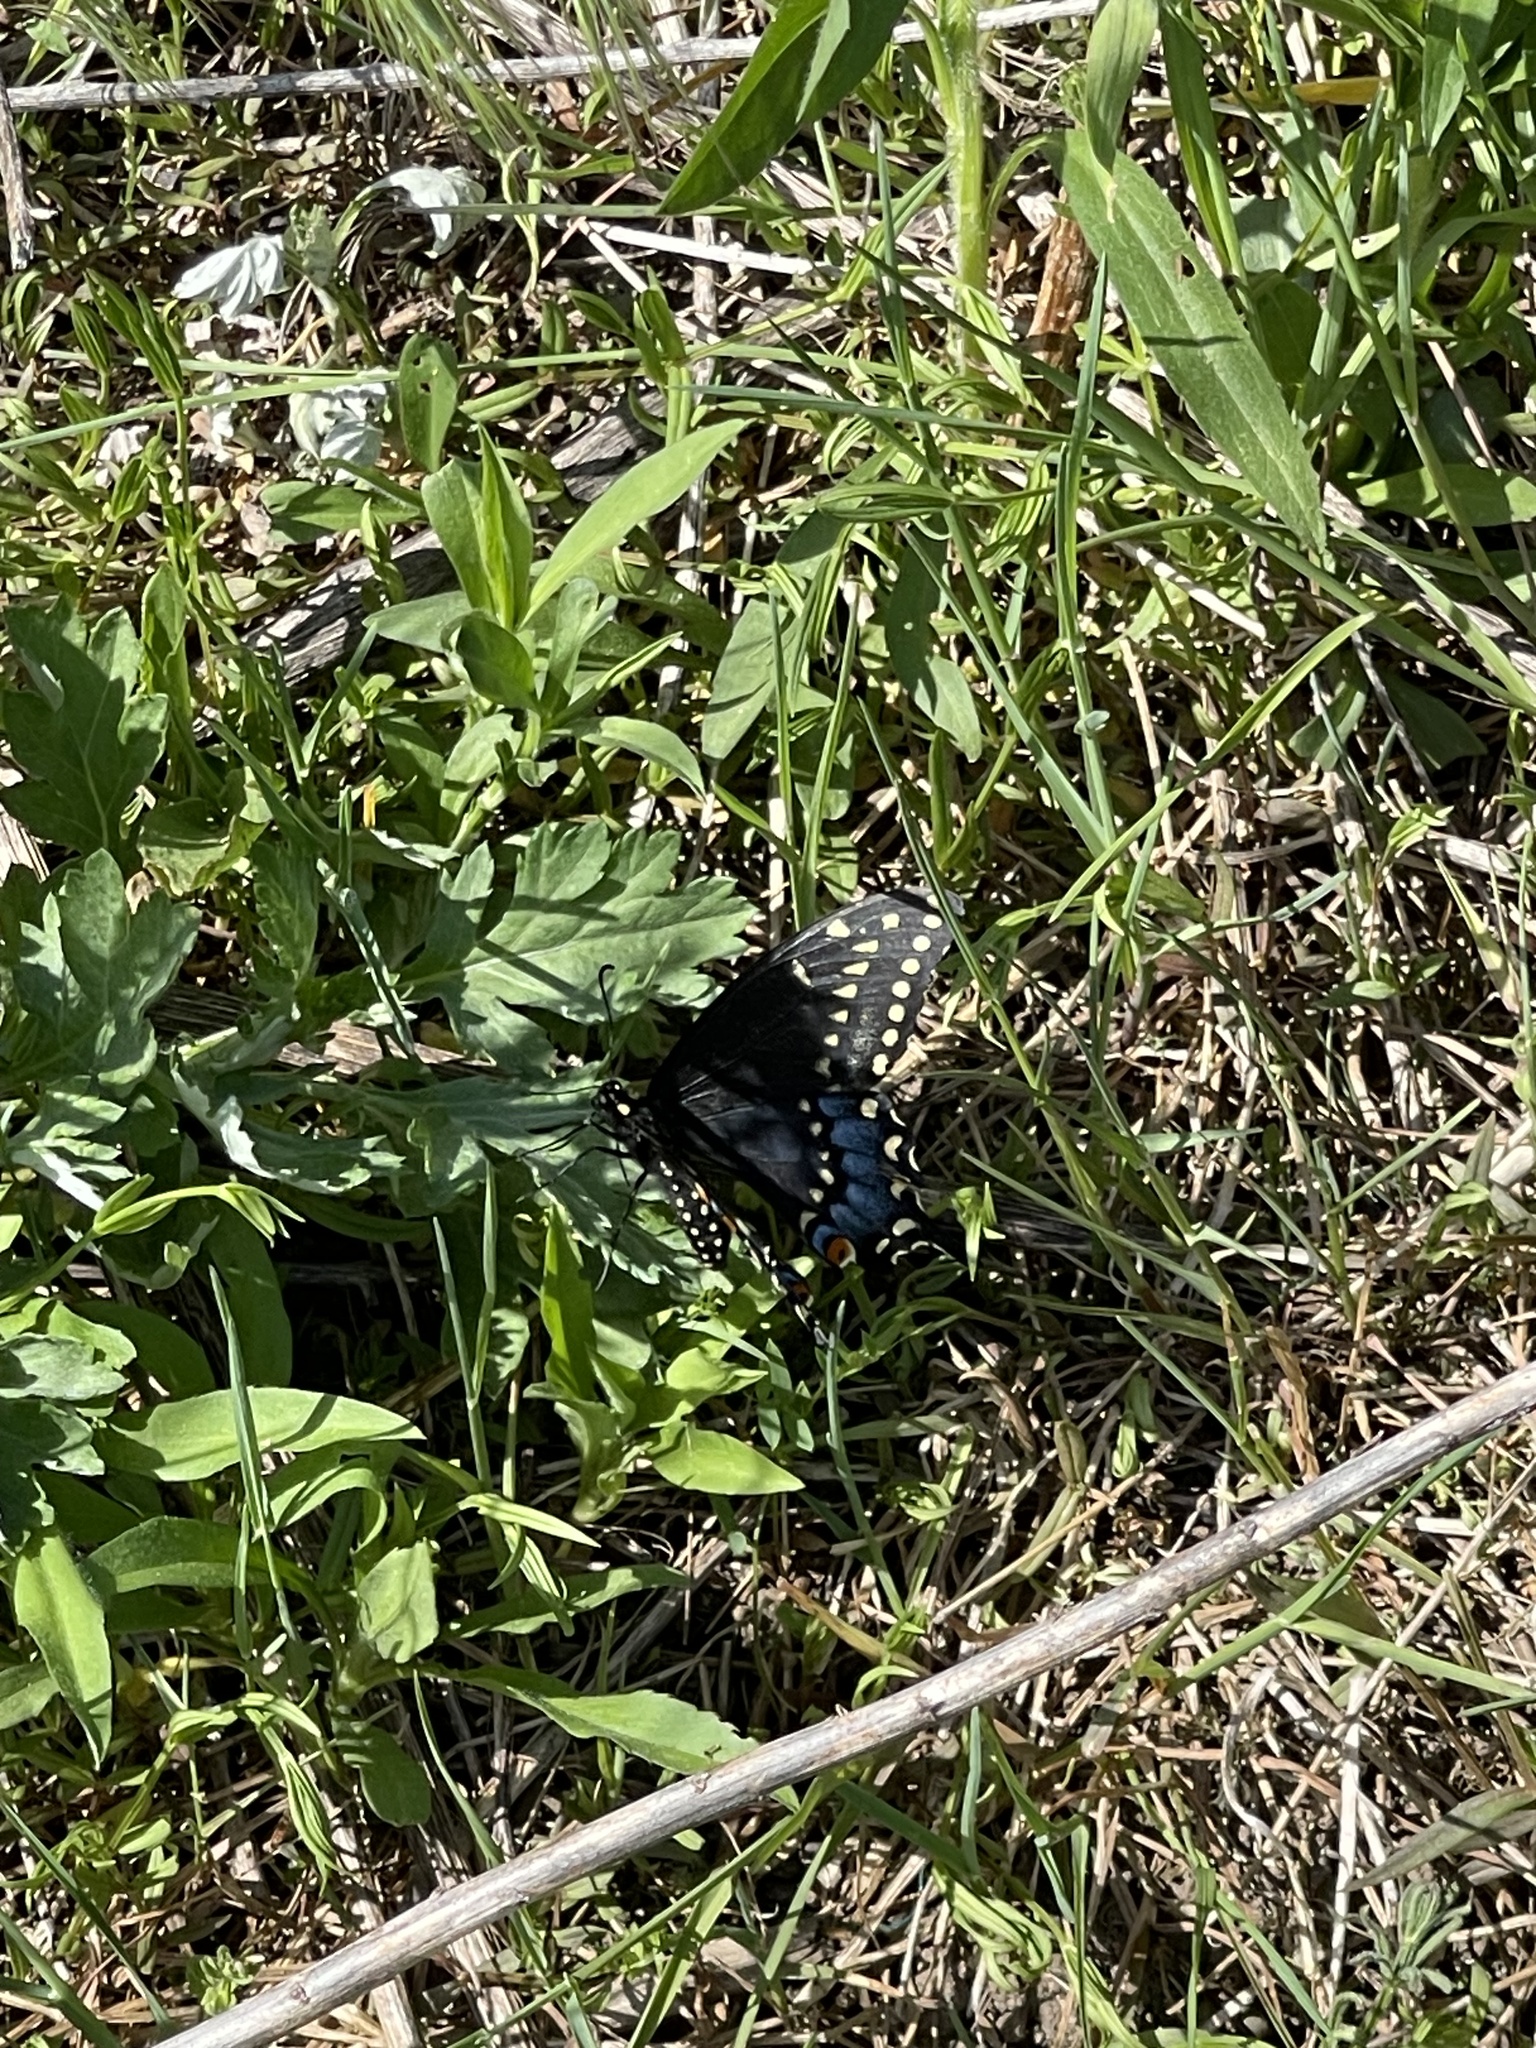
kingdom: Animalia
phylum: Arthropoda
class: Insecta
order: Lepidoptera
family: Papilionidae
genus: Papilio
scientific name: Papilio polyxenes
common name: Black swallowtail
